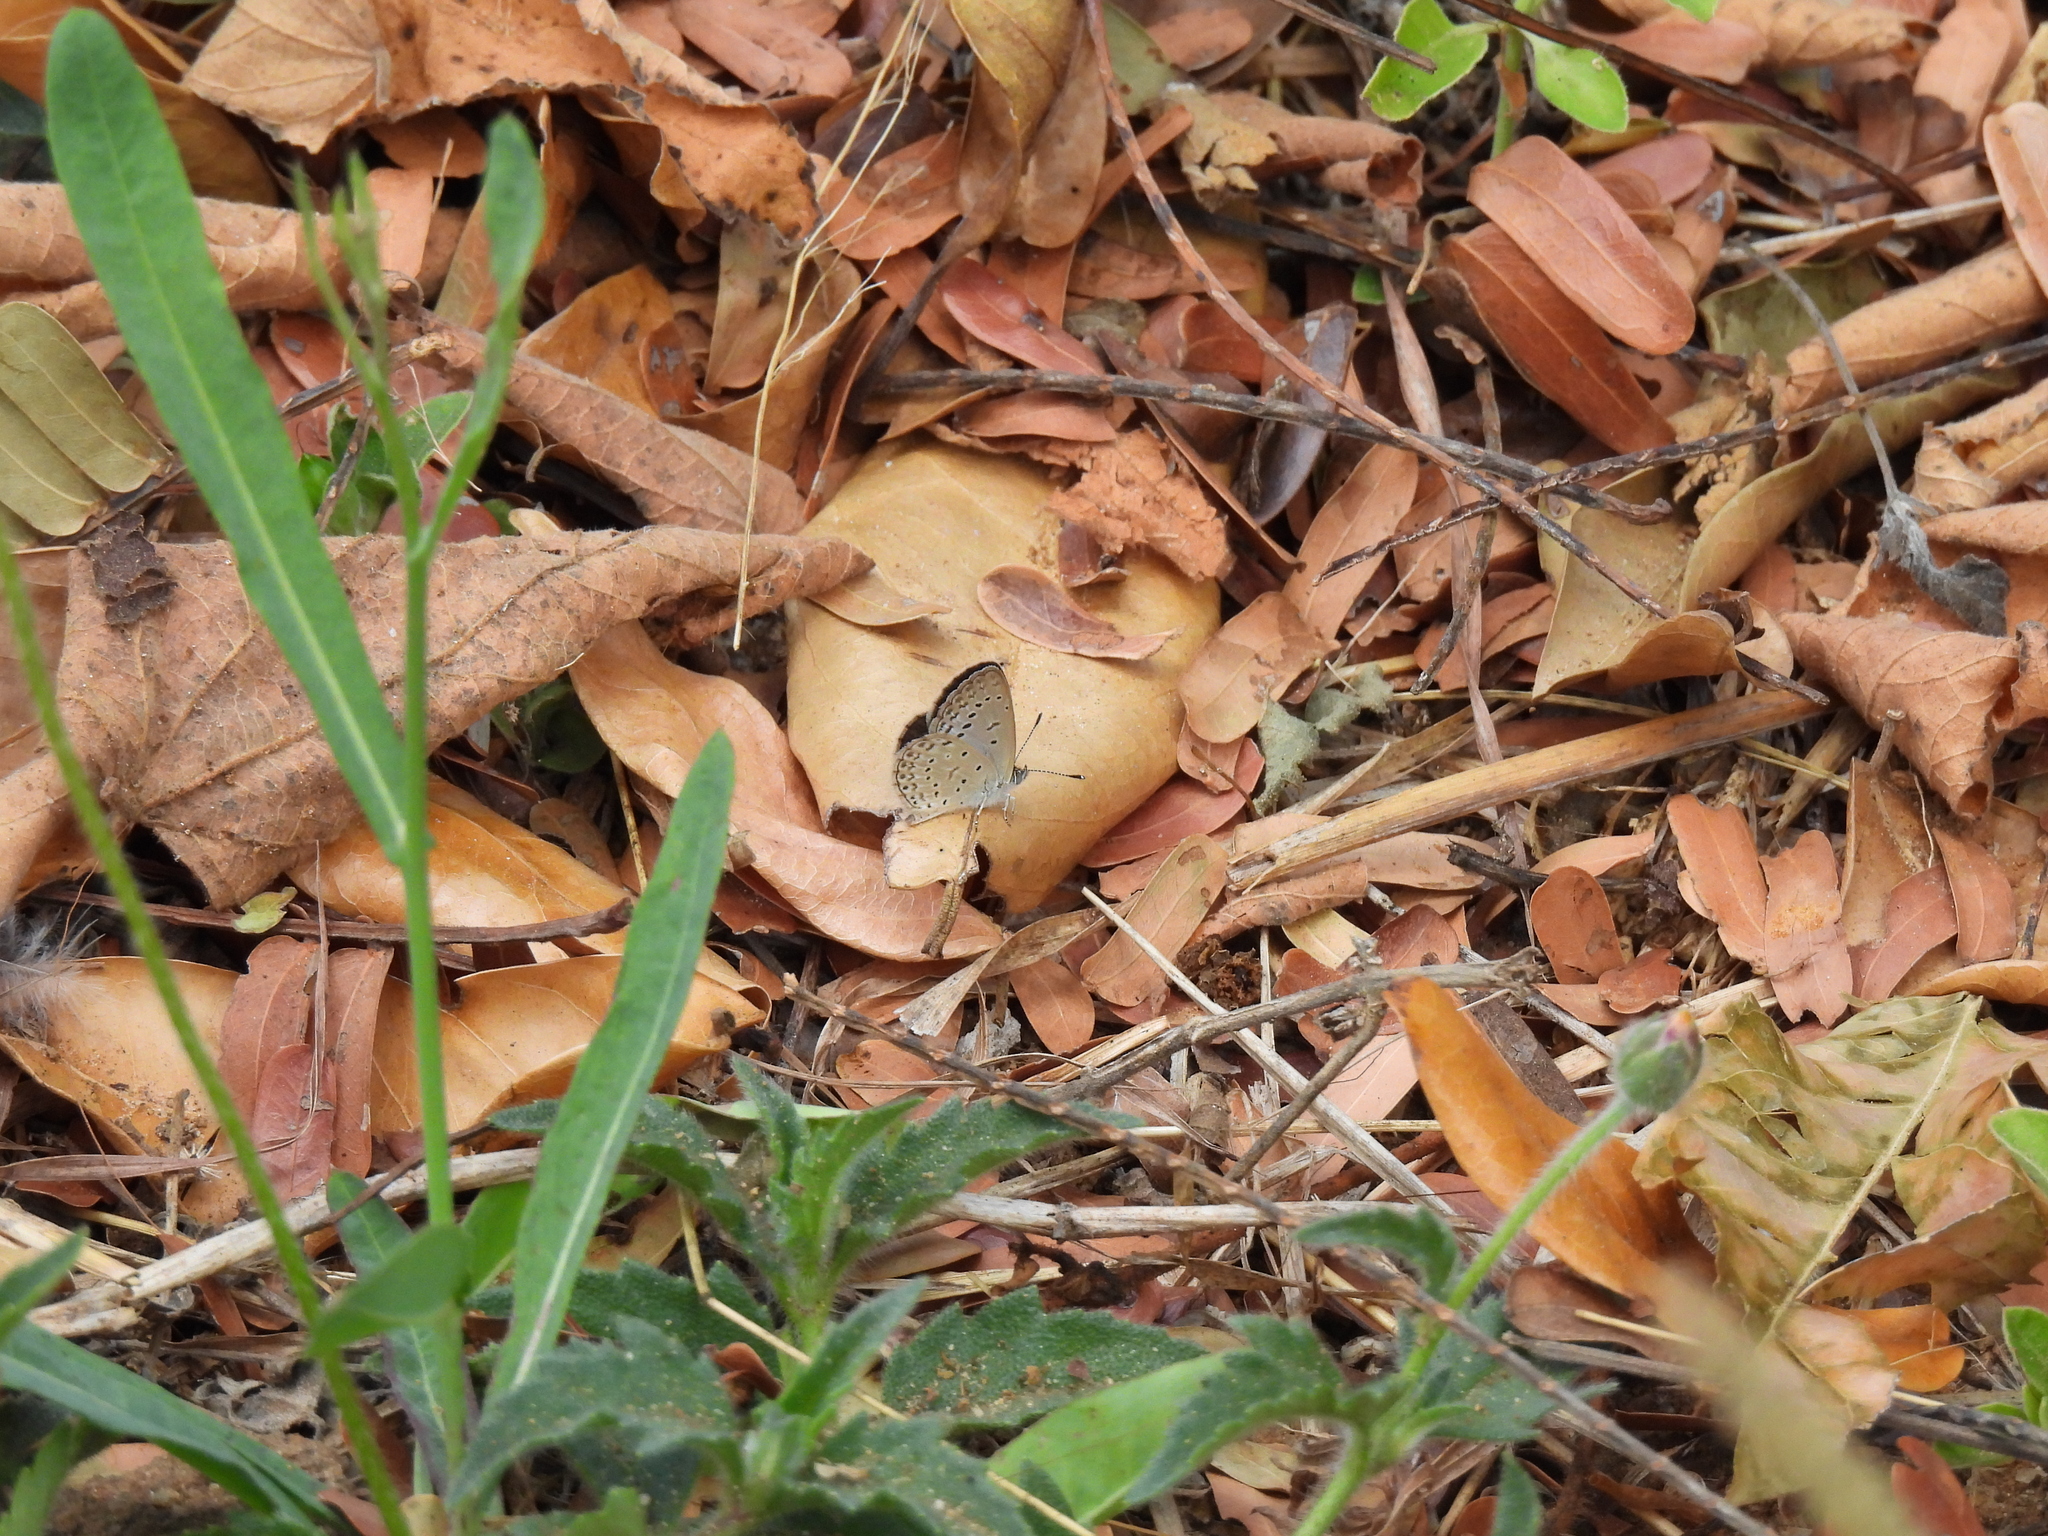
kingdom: Animalia
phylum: Arthropoda
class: Insecta
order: Lepidoptera
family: Lycaenidae
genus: Zizeeria
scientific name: Zizeeria knysna
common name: African grass blue
